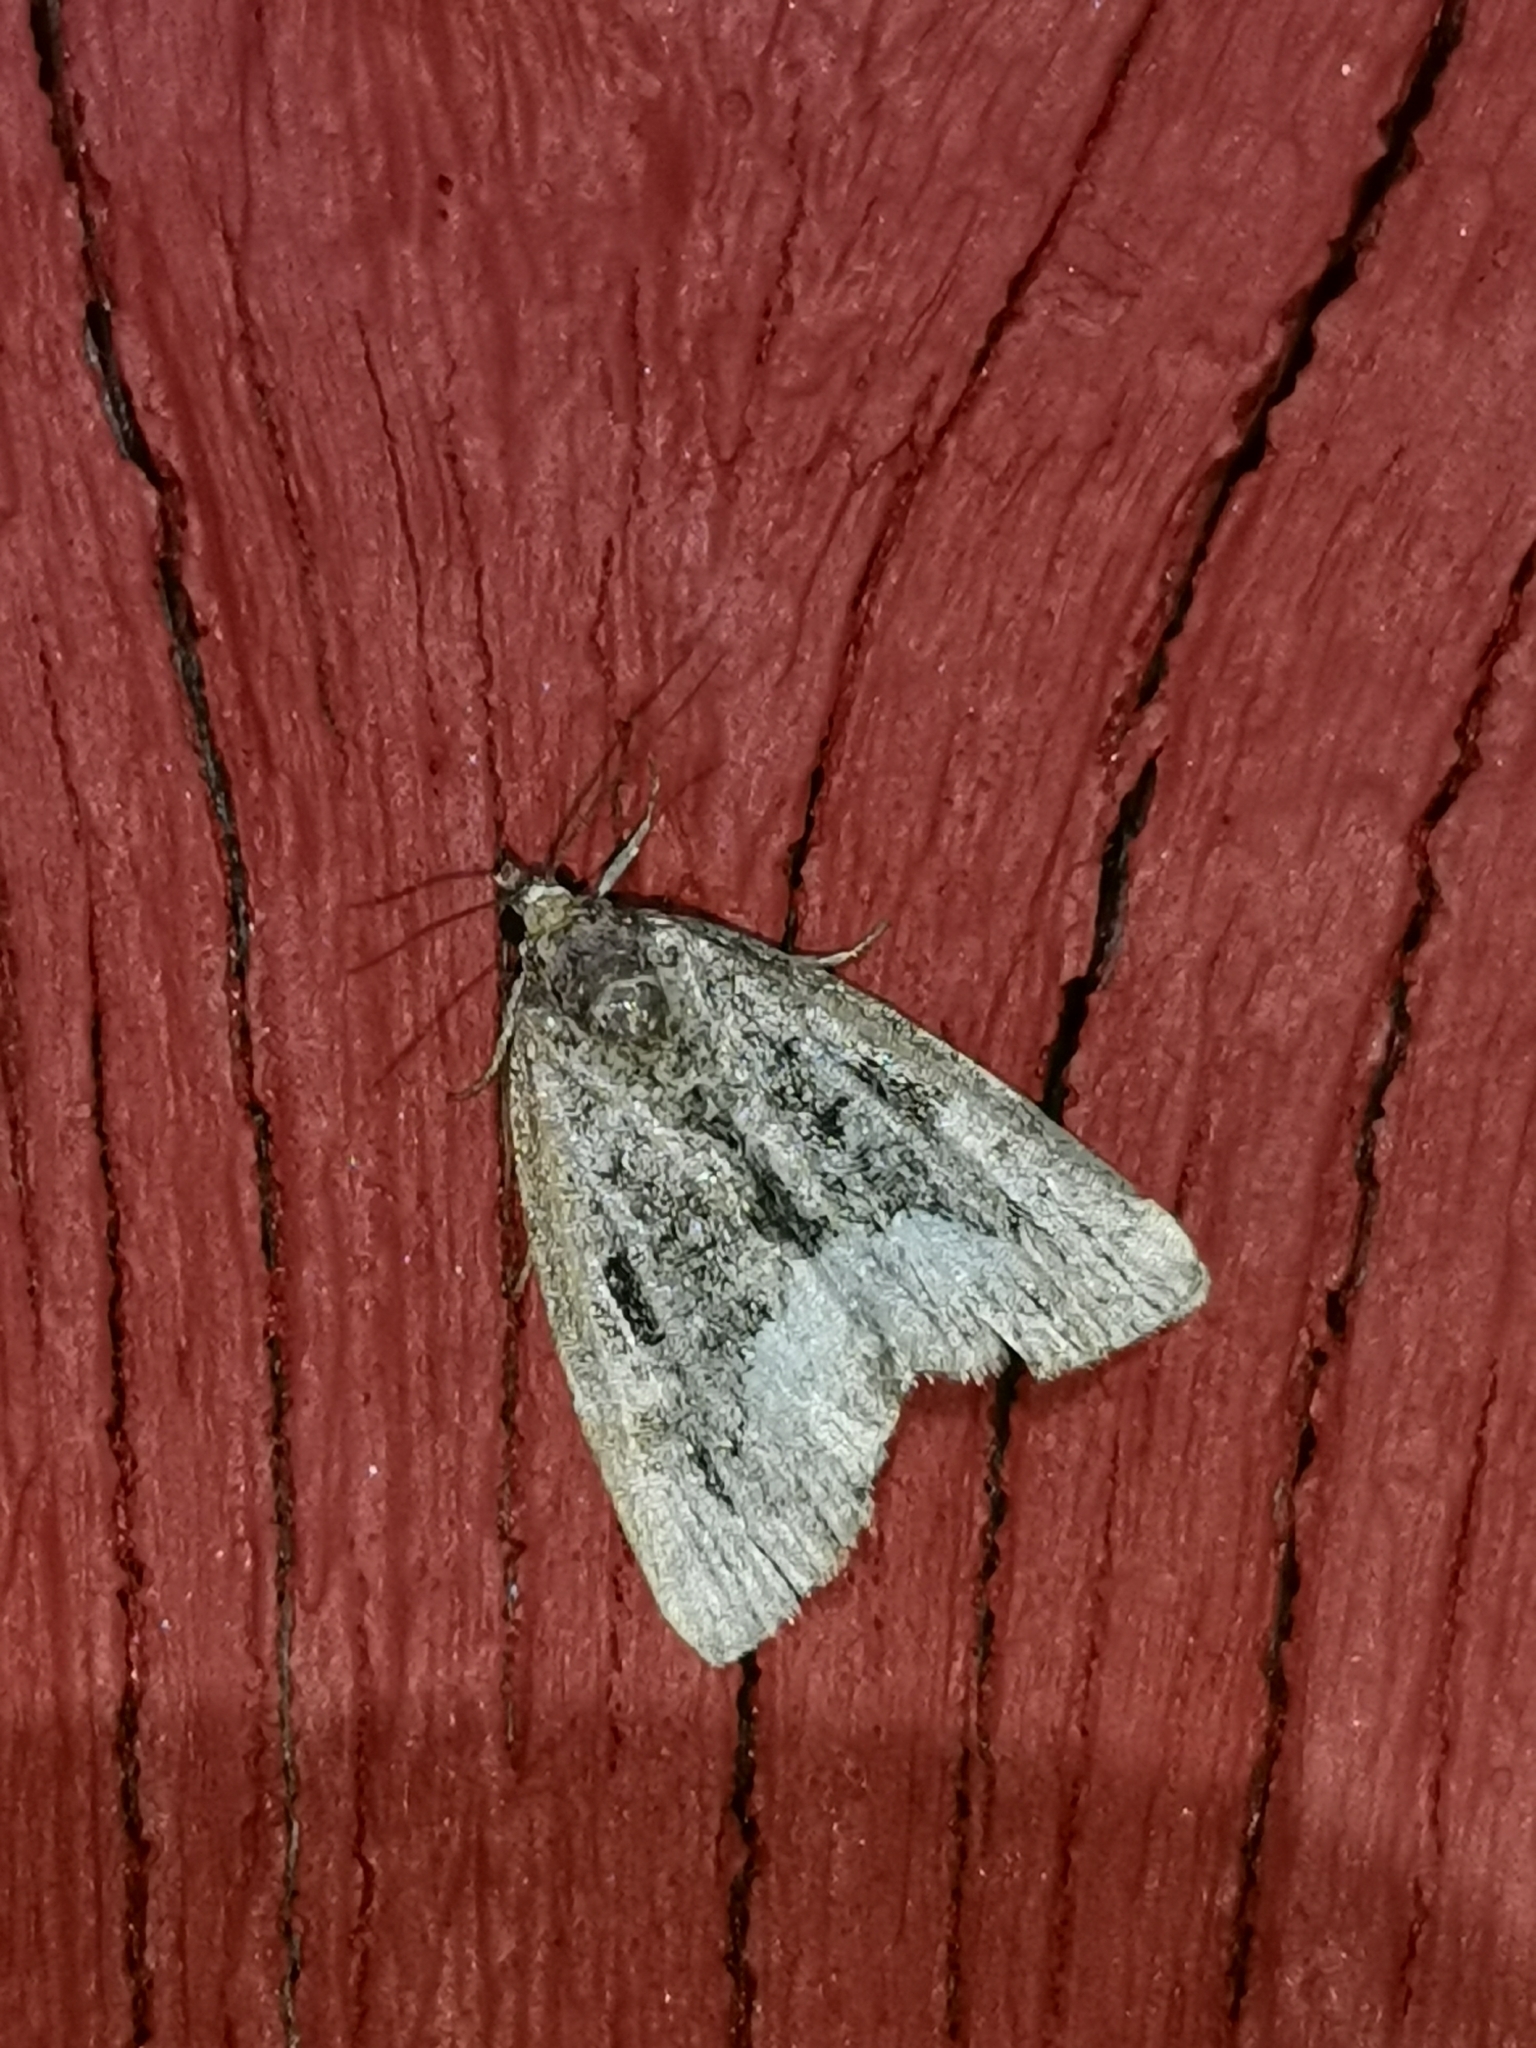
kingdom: Animalia
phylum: Arthropoda
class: Insecta
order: Lepidoptera
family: Noctuidae
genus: Deltote
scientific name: Deltote pygarga
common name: Marbled white spot
